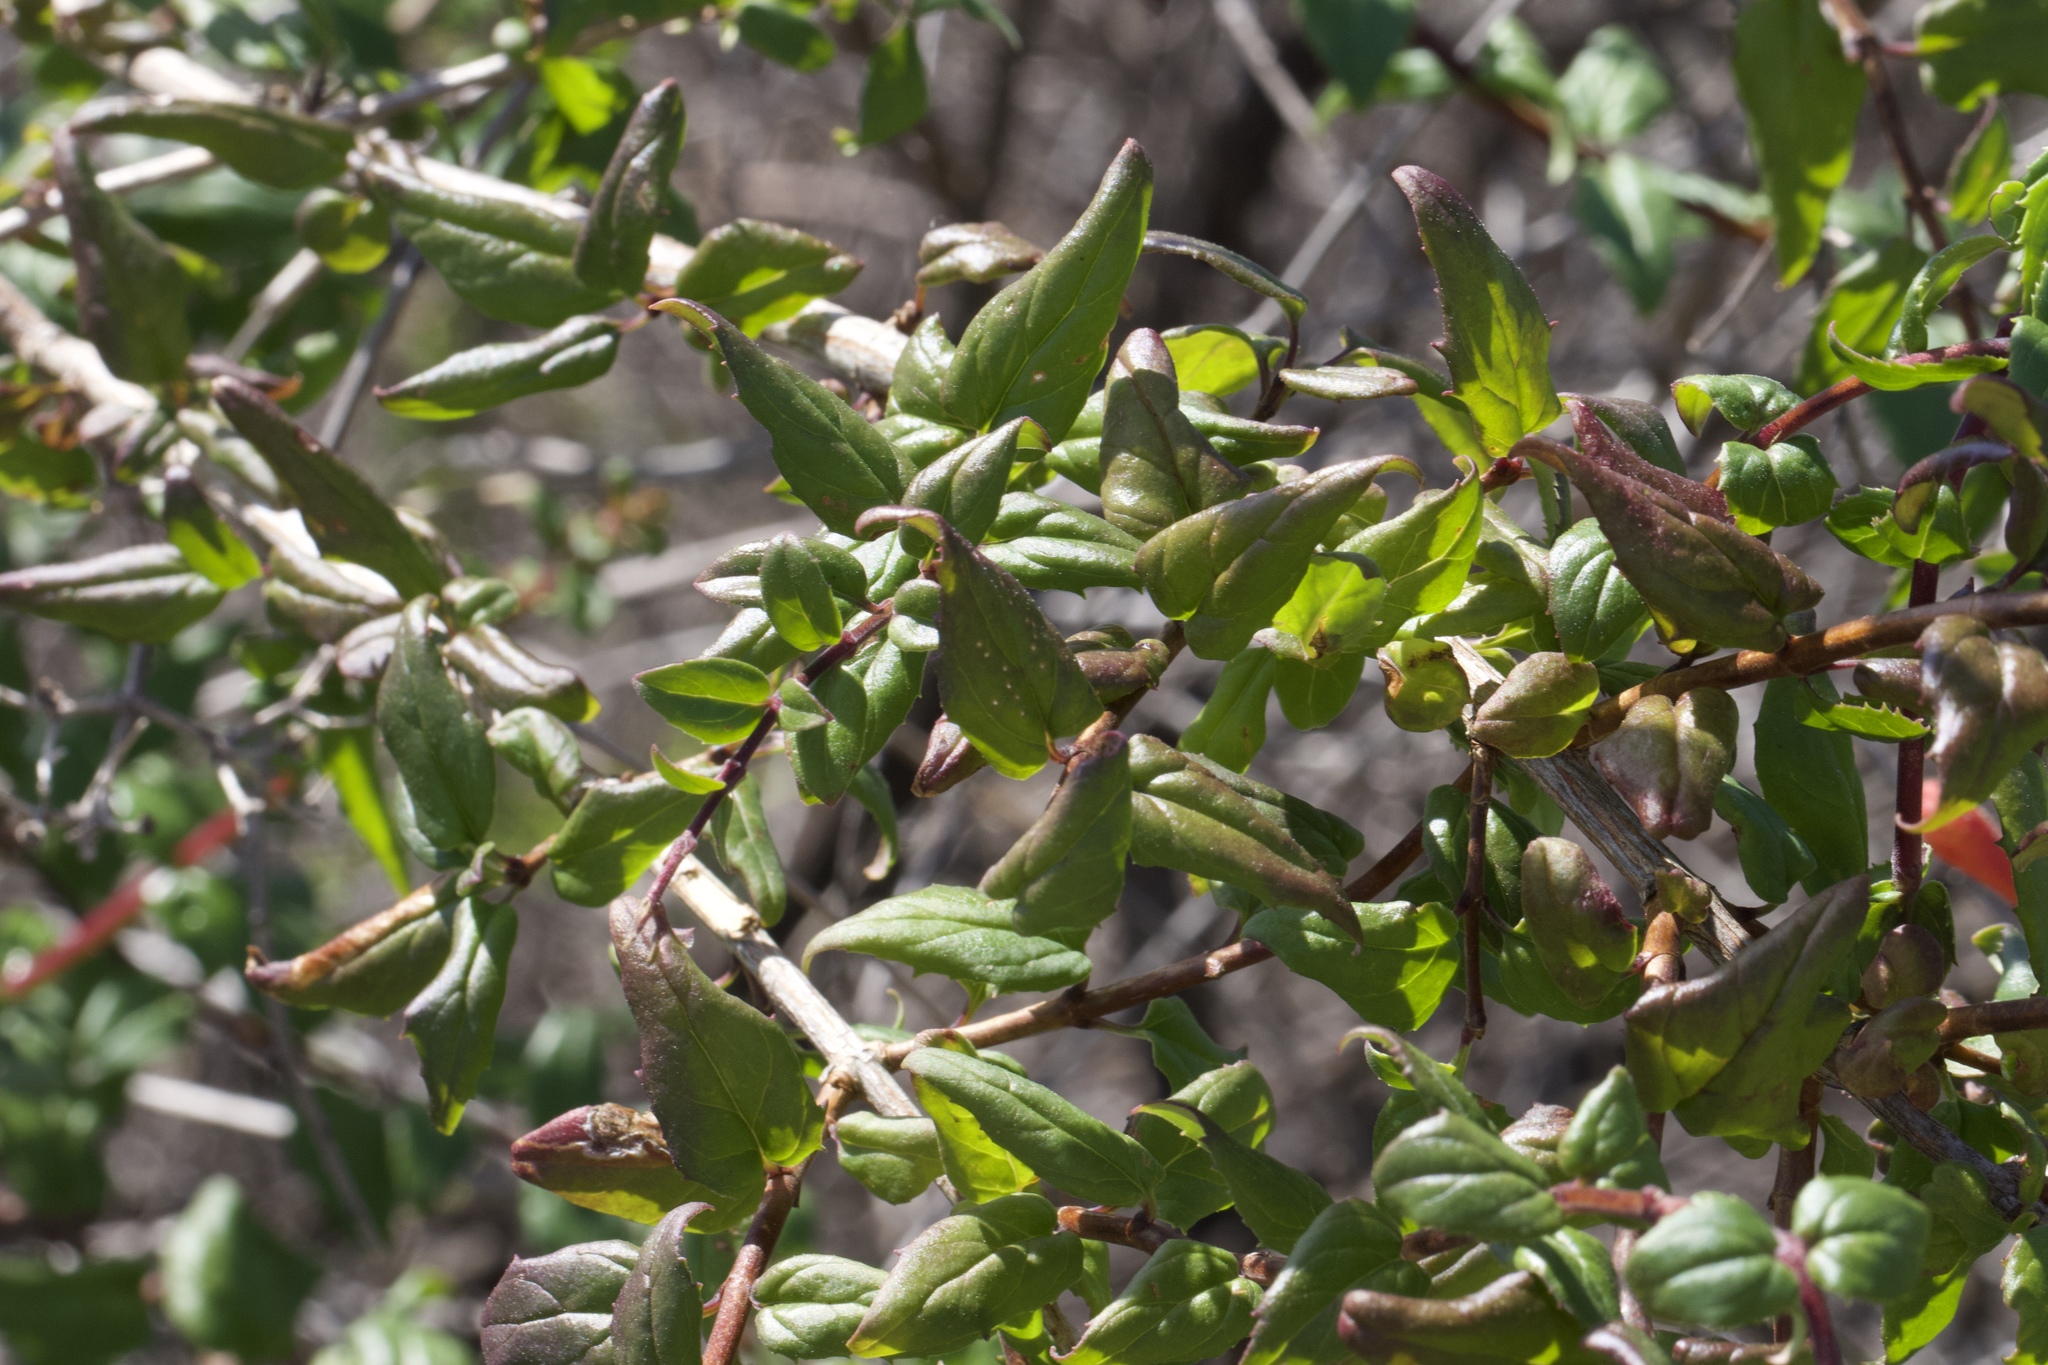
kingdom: Plantae
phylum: Tracheophyta
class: Magnoliopsida
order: Lamiales
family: Plantaginaceae
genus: Keckiella
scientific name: Keckiella cordifolia
